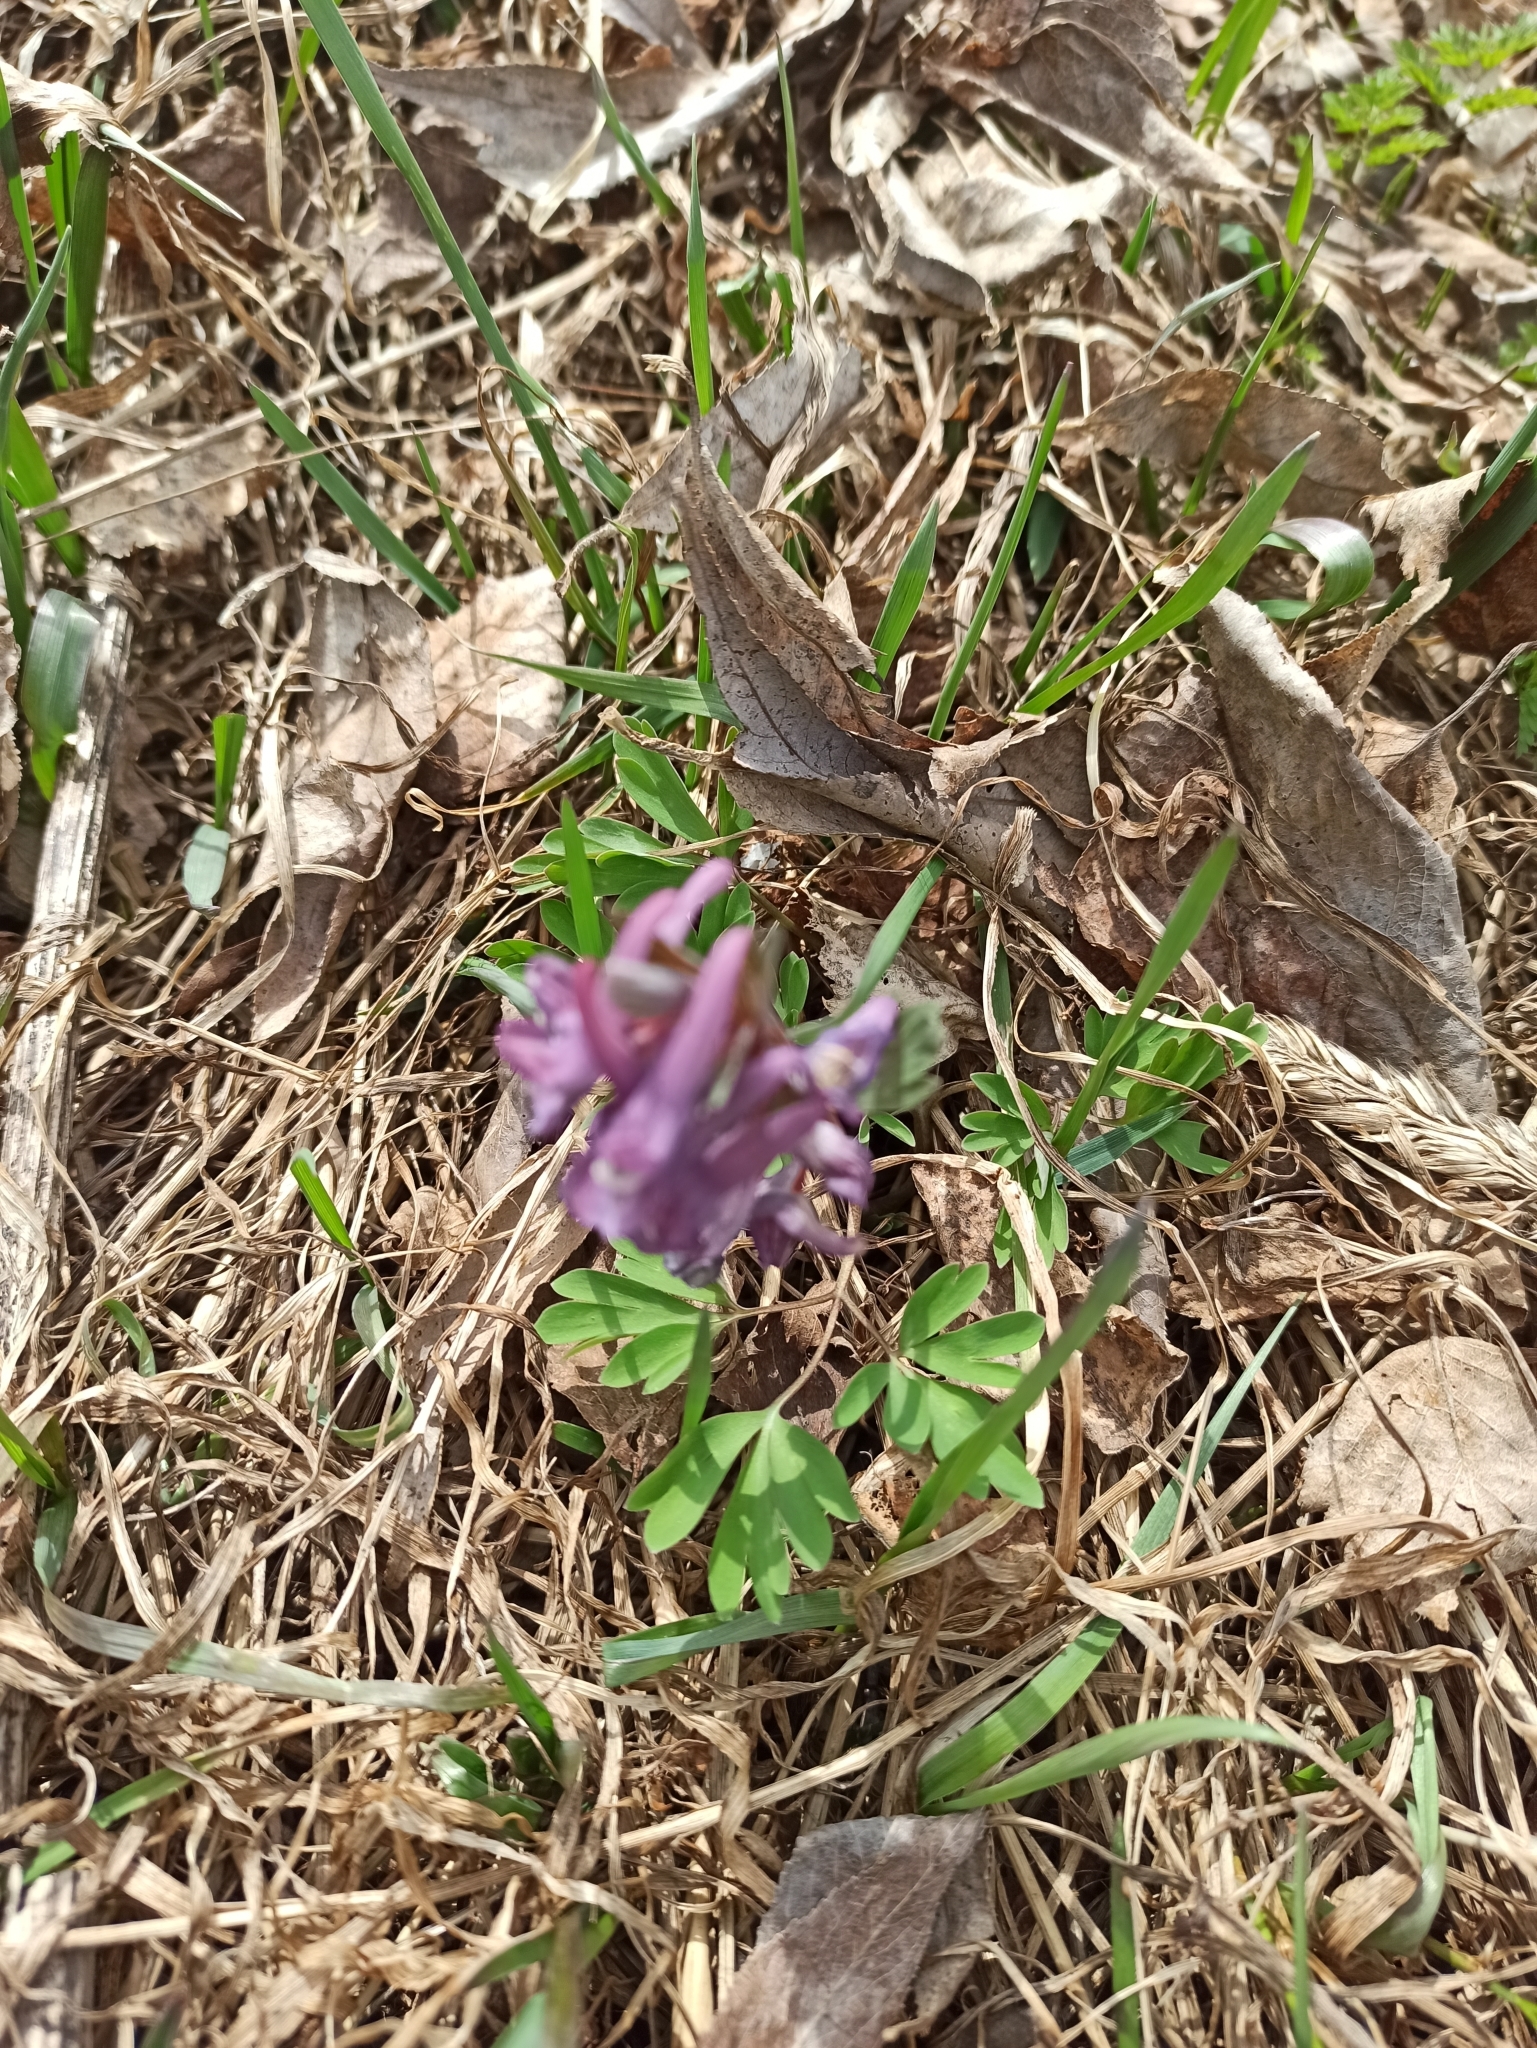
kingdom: Plantae
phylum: Tracheophyta
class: Magnoliopsida
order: Ranunculales
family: Papaveraceae
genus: Corydalis
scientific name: Corydalis solida
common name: Bird-in-a-bush
